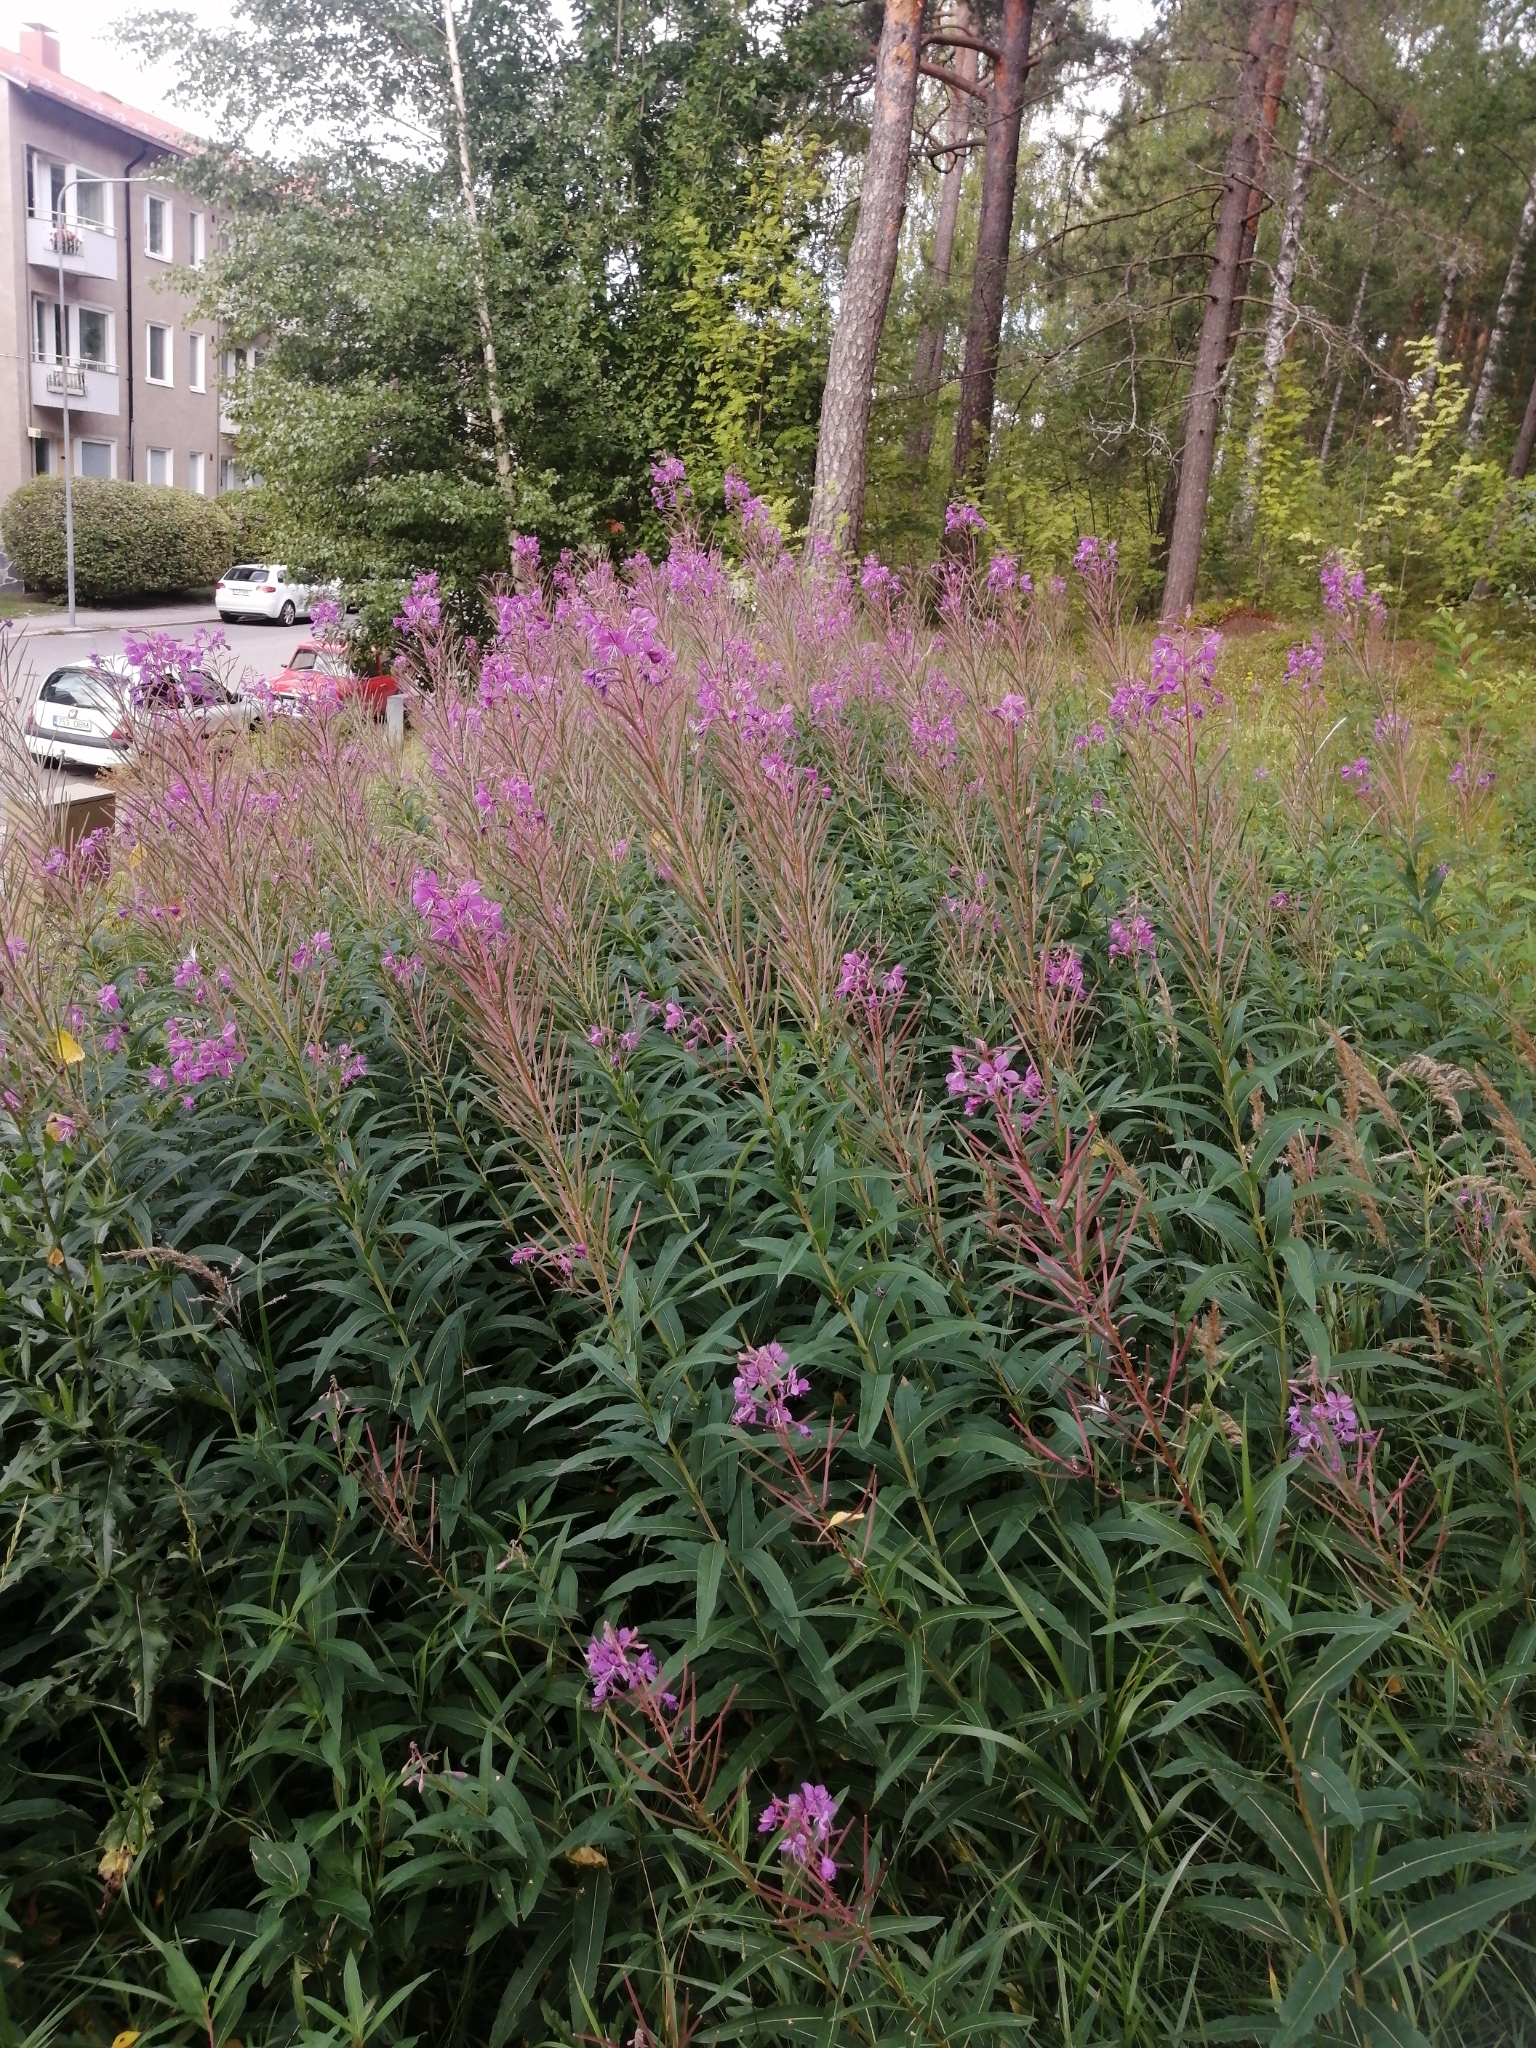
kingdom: Plantae
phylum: Tracheophyta
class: Magnoliopsida
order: Myrtales
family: Onagraceae
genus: Chamaenerion
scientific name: Chamaenerion angustifolium
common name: Fireweed
